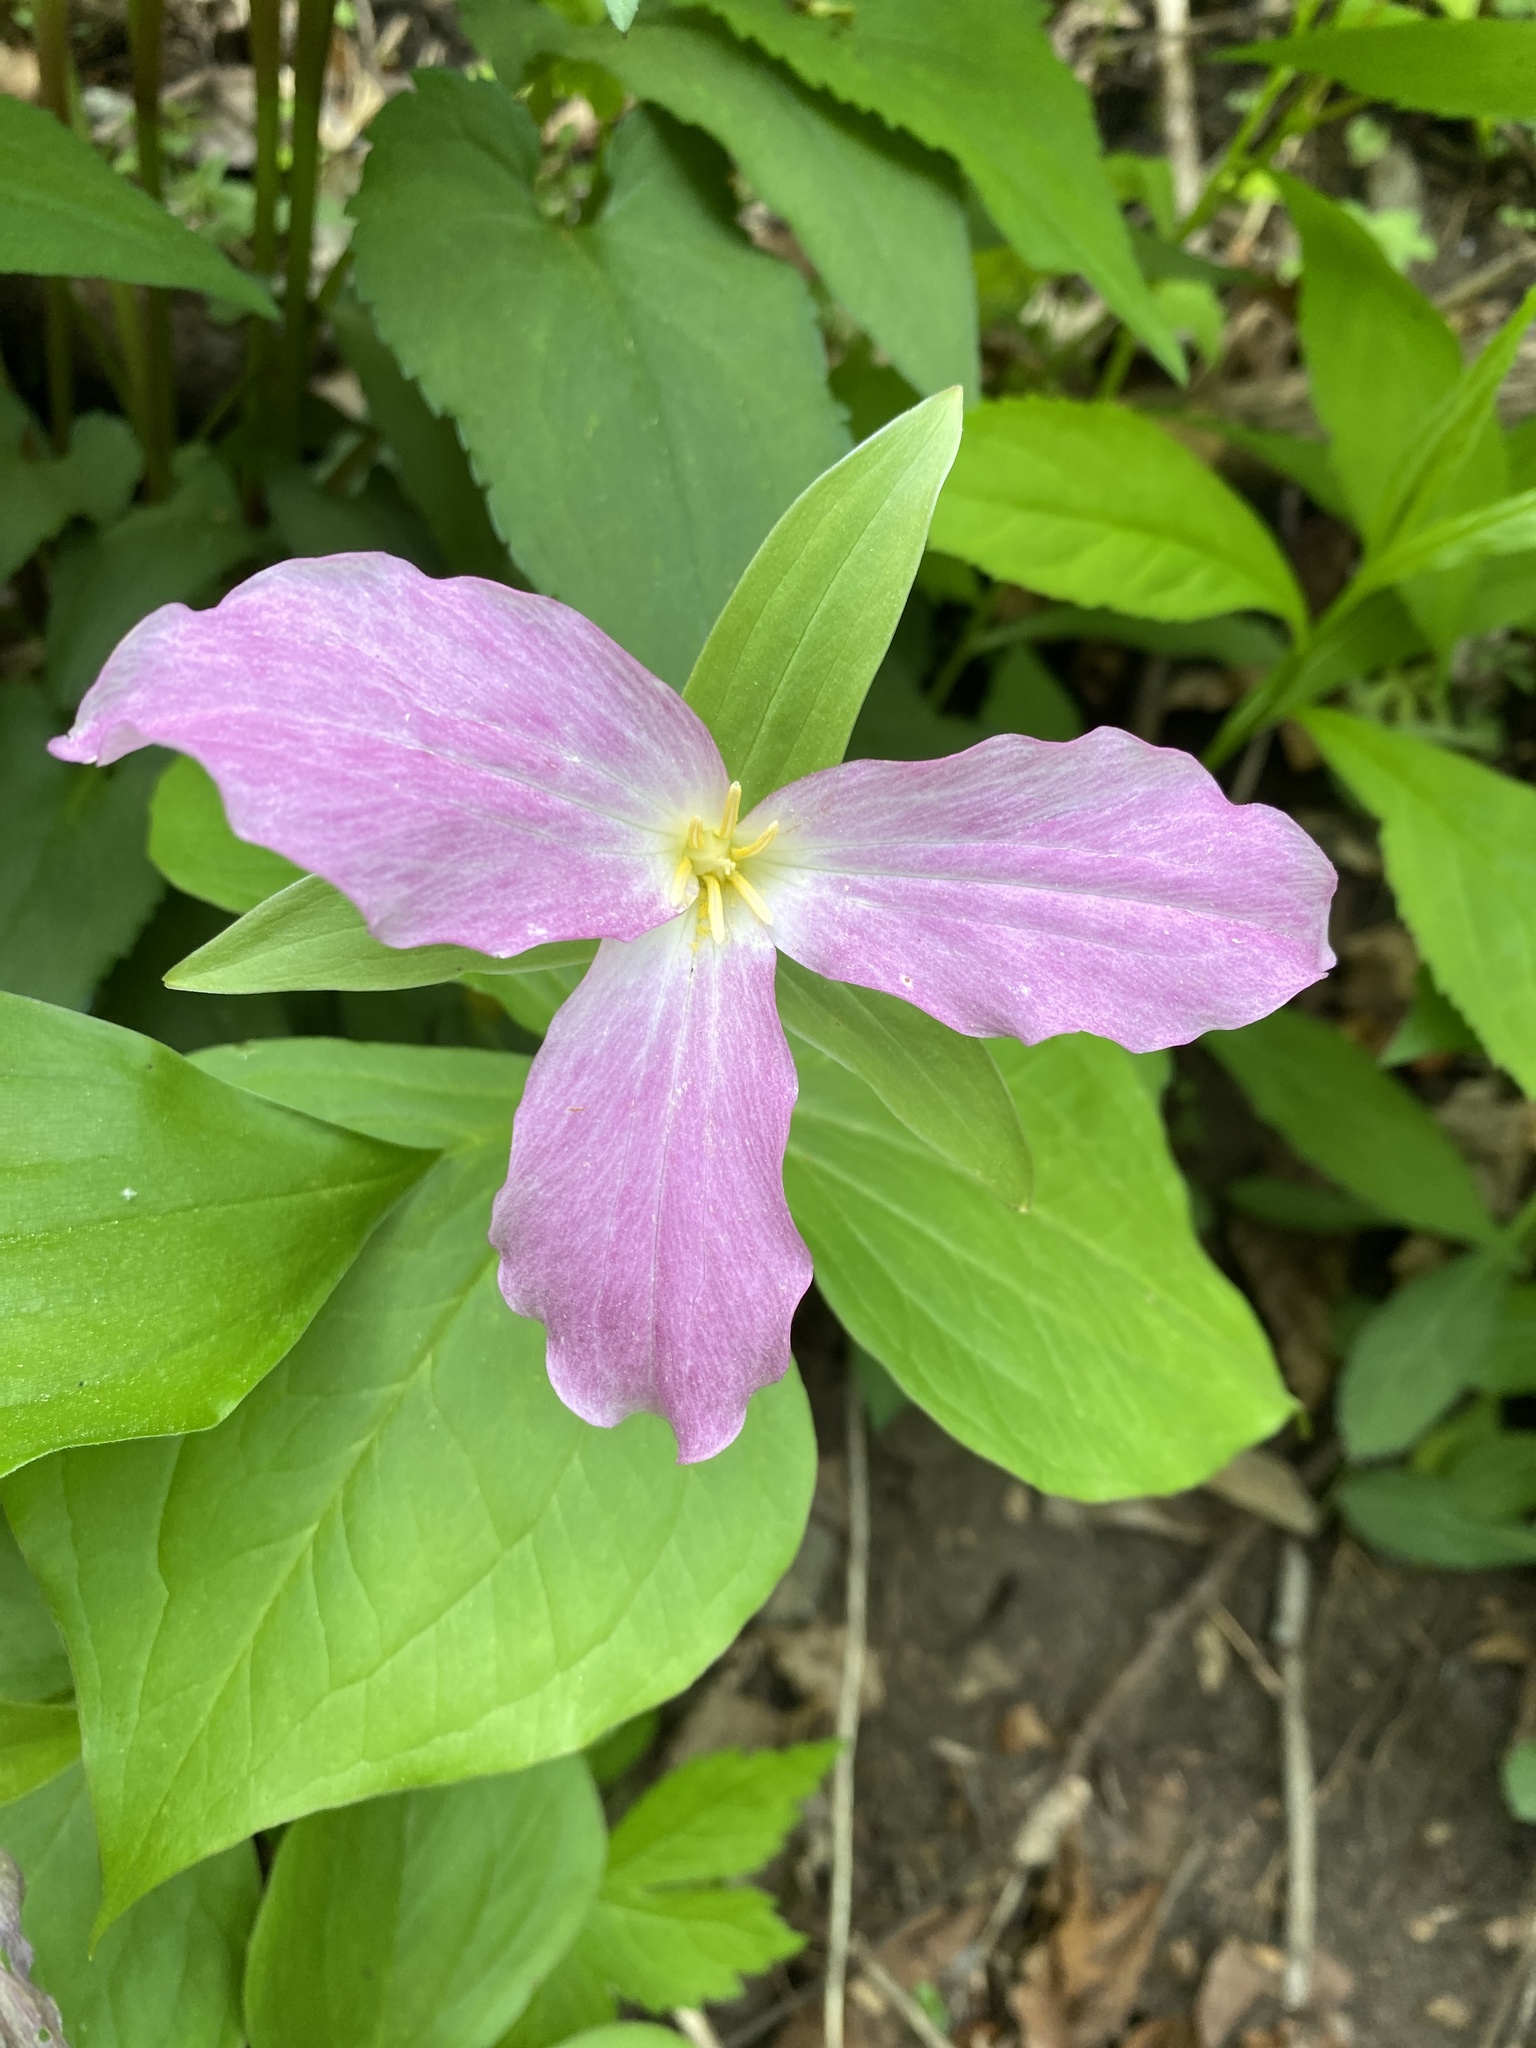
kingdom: Plantae
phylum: Tracheophyta
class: Liliopsida
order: Liliales
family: Melanthiaceae
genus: Trillium
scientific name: Trillium grandiflorum
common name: Great white trillium
